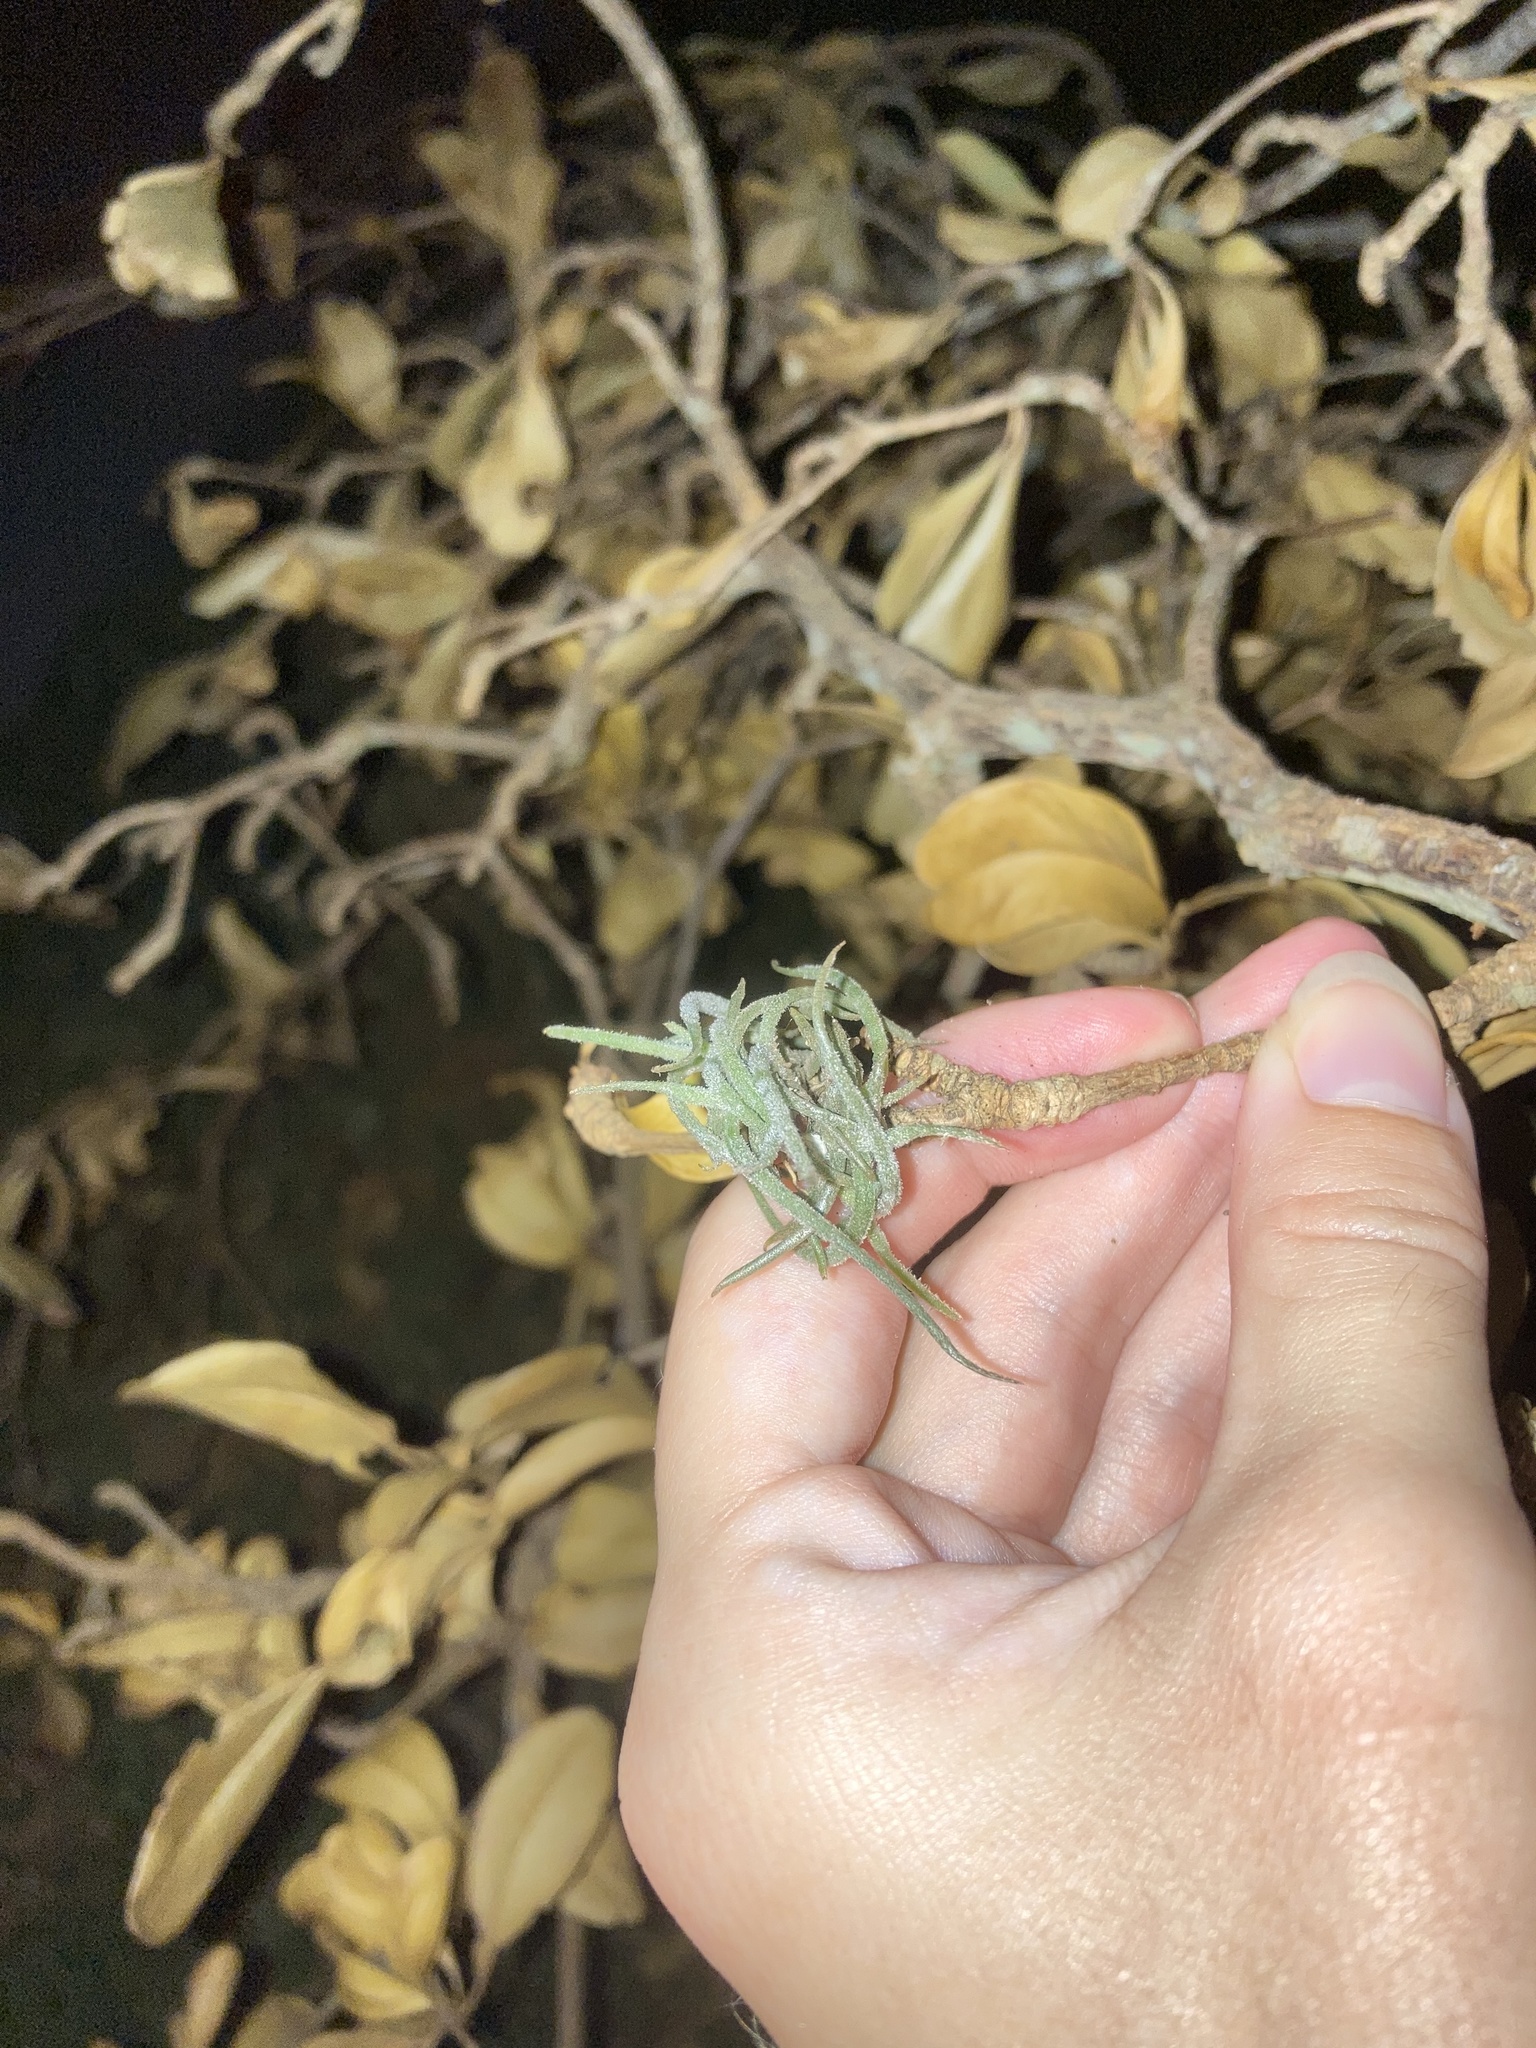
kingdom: Plantae
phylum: Tracheophyta
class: Liliopsida
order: Poales
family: Bromeliaceae
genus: Tillandsia
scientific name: Tillandsia recurvata
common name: Small ballmoss
